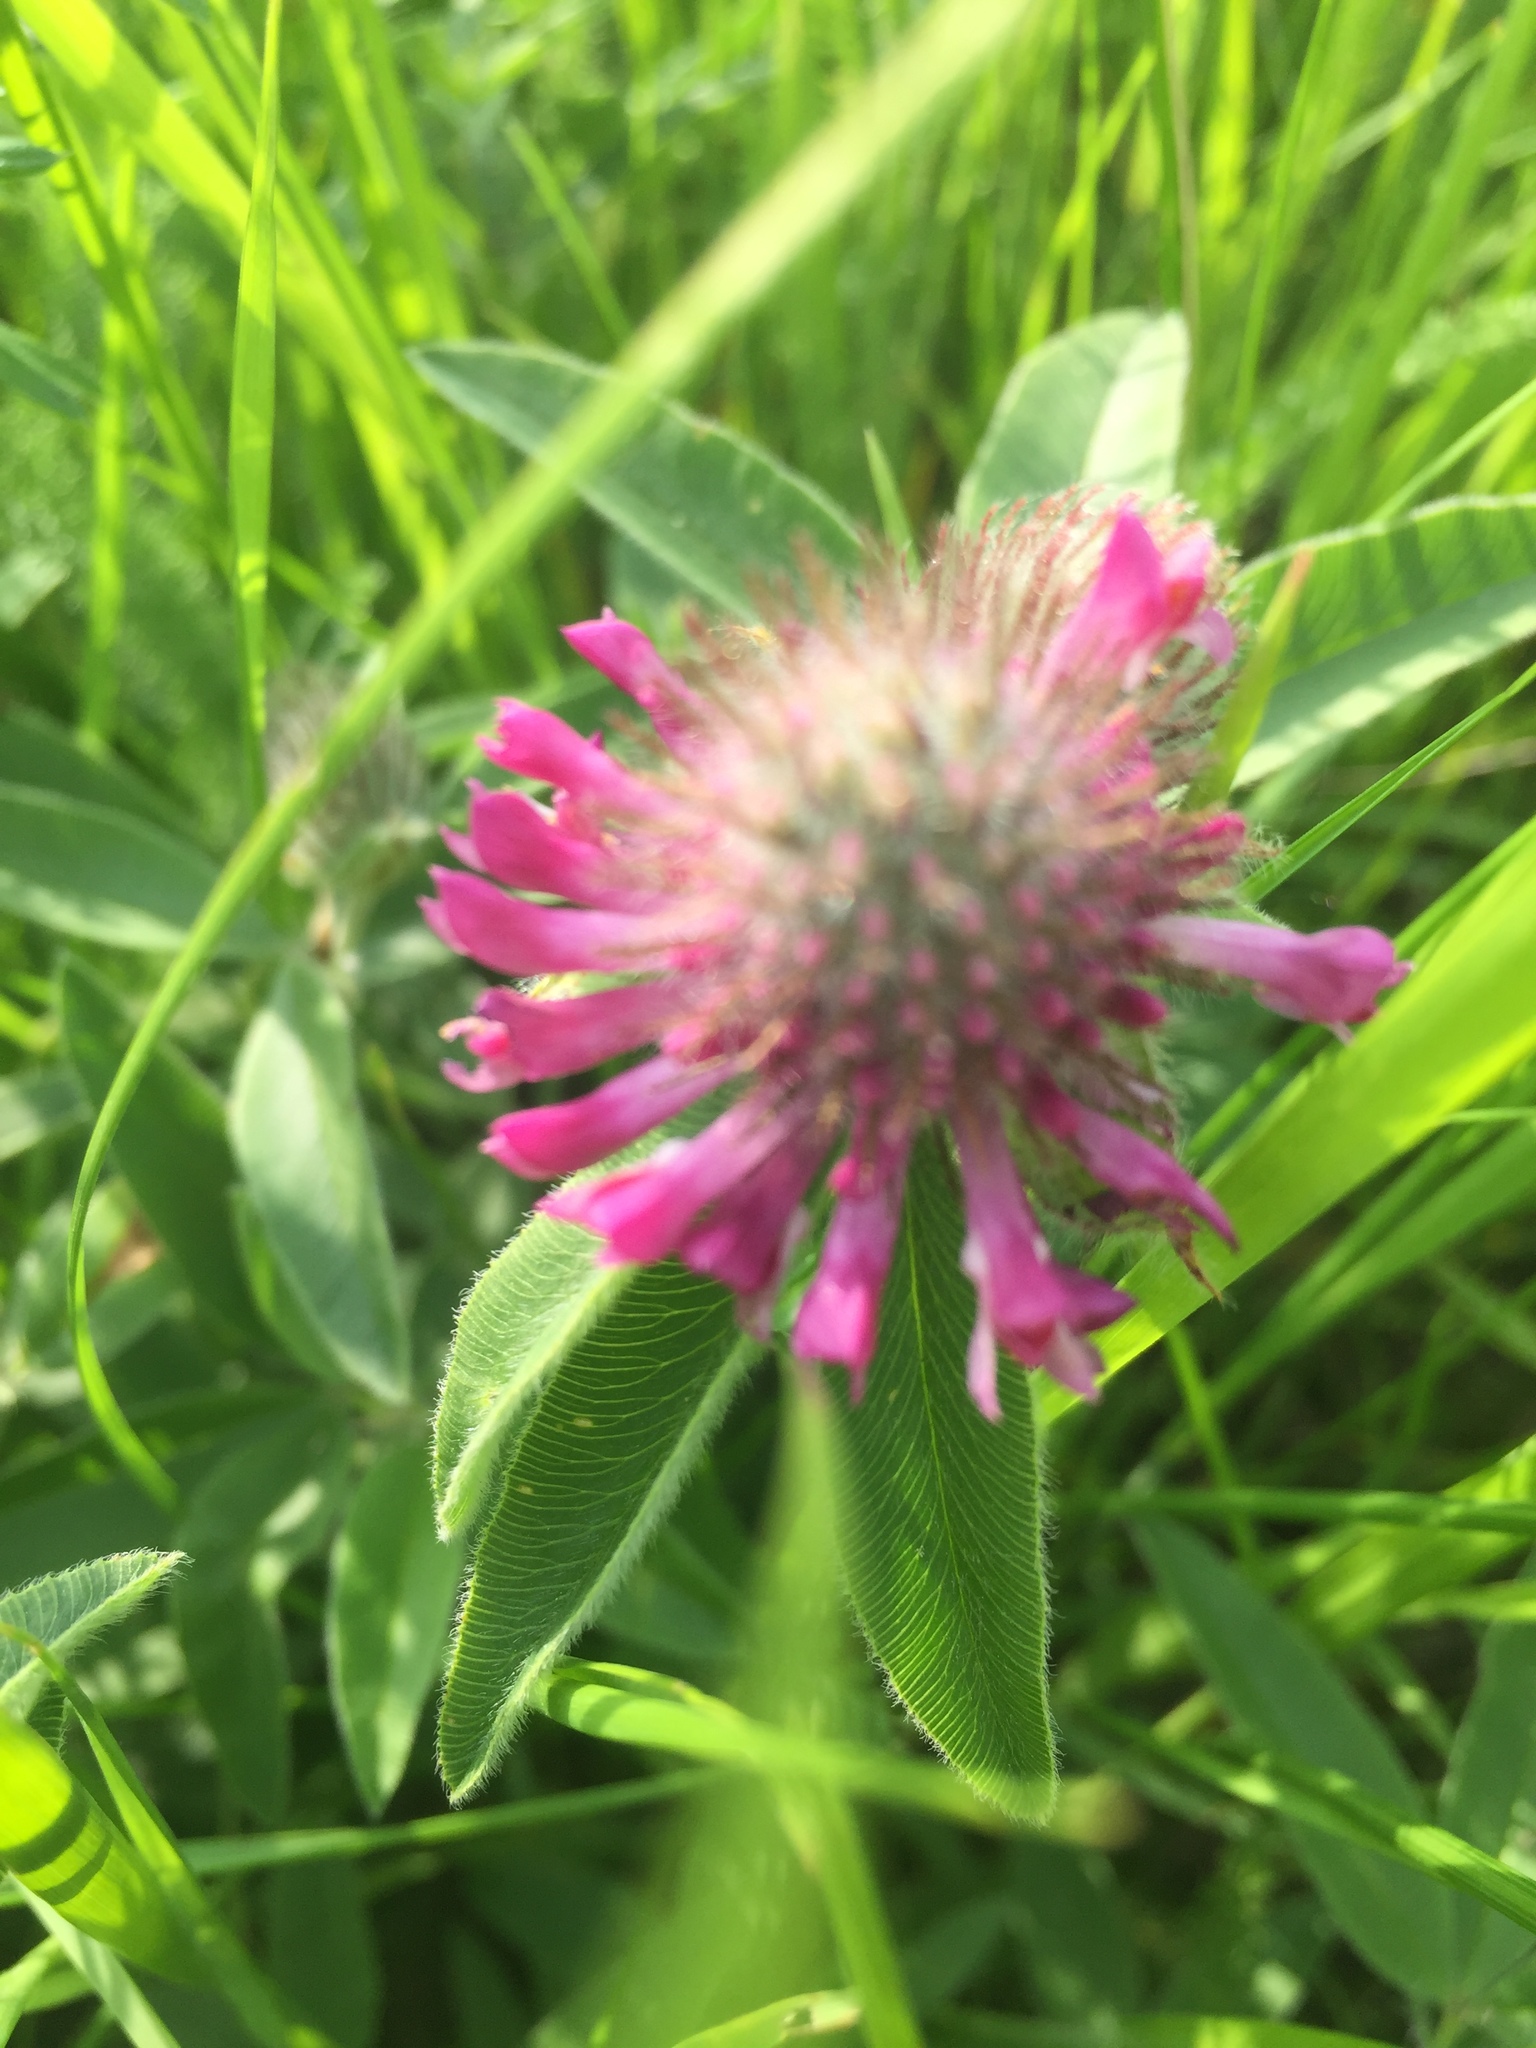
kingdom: Plantae
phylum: Tracheophyta
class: Magnoliopsida
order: Fabales
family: Fabaceae
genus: Trifolium
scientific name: Trifolium alpestre
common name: Owl-head clover
